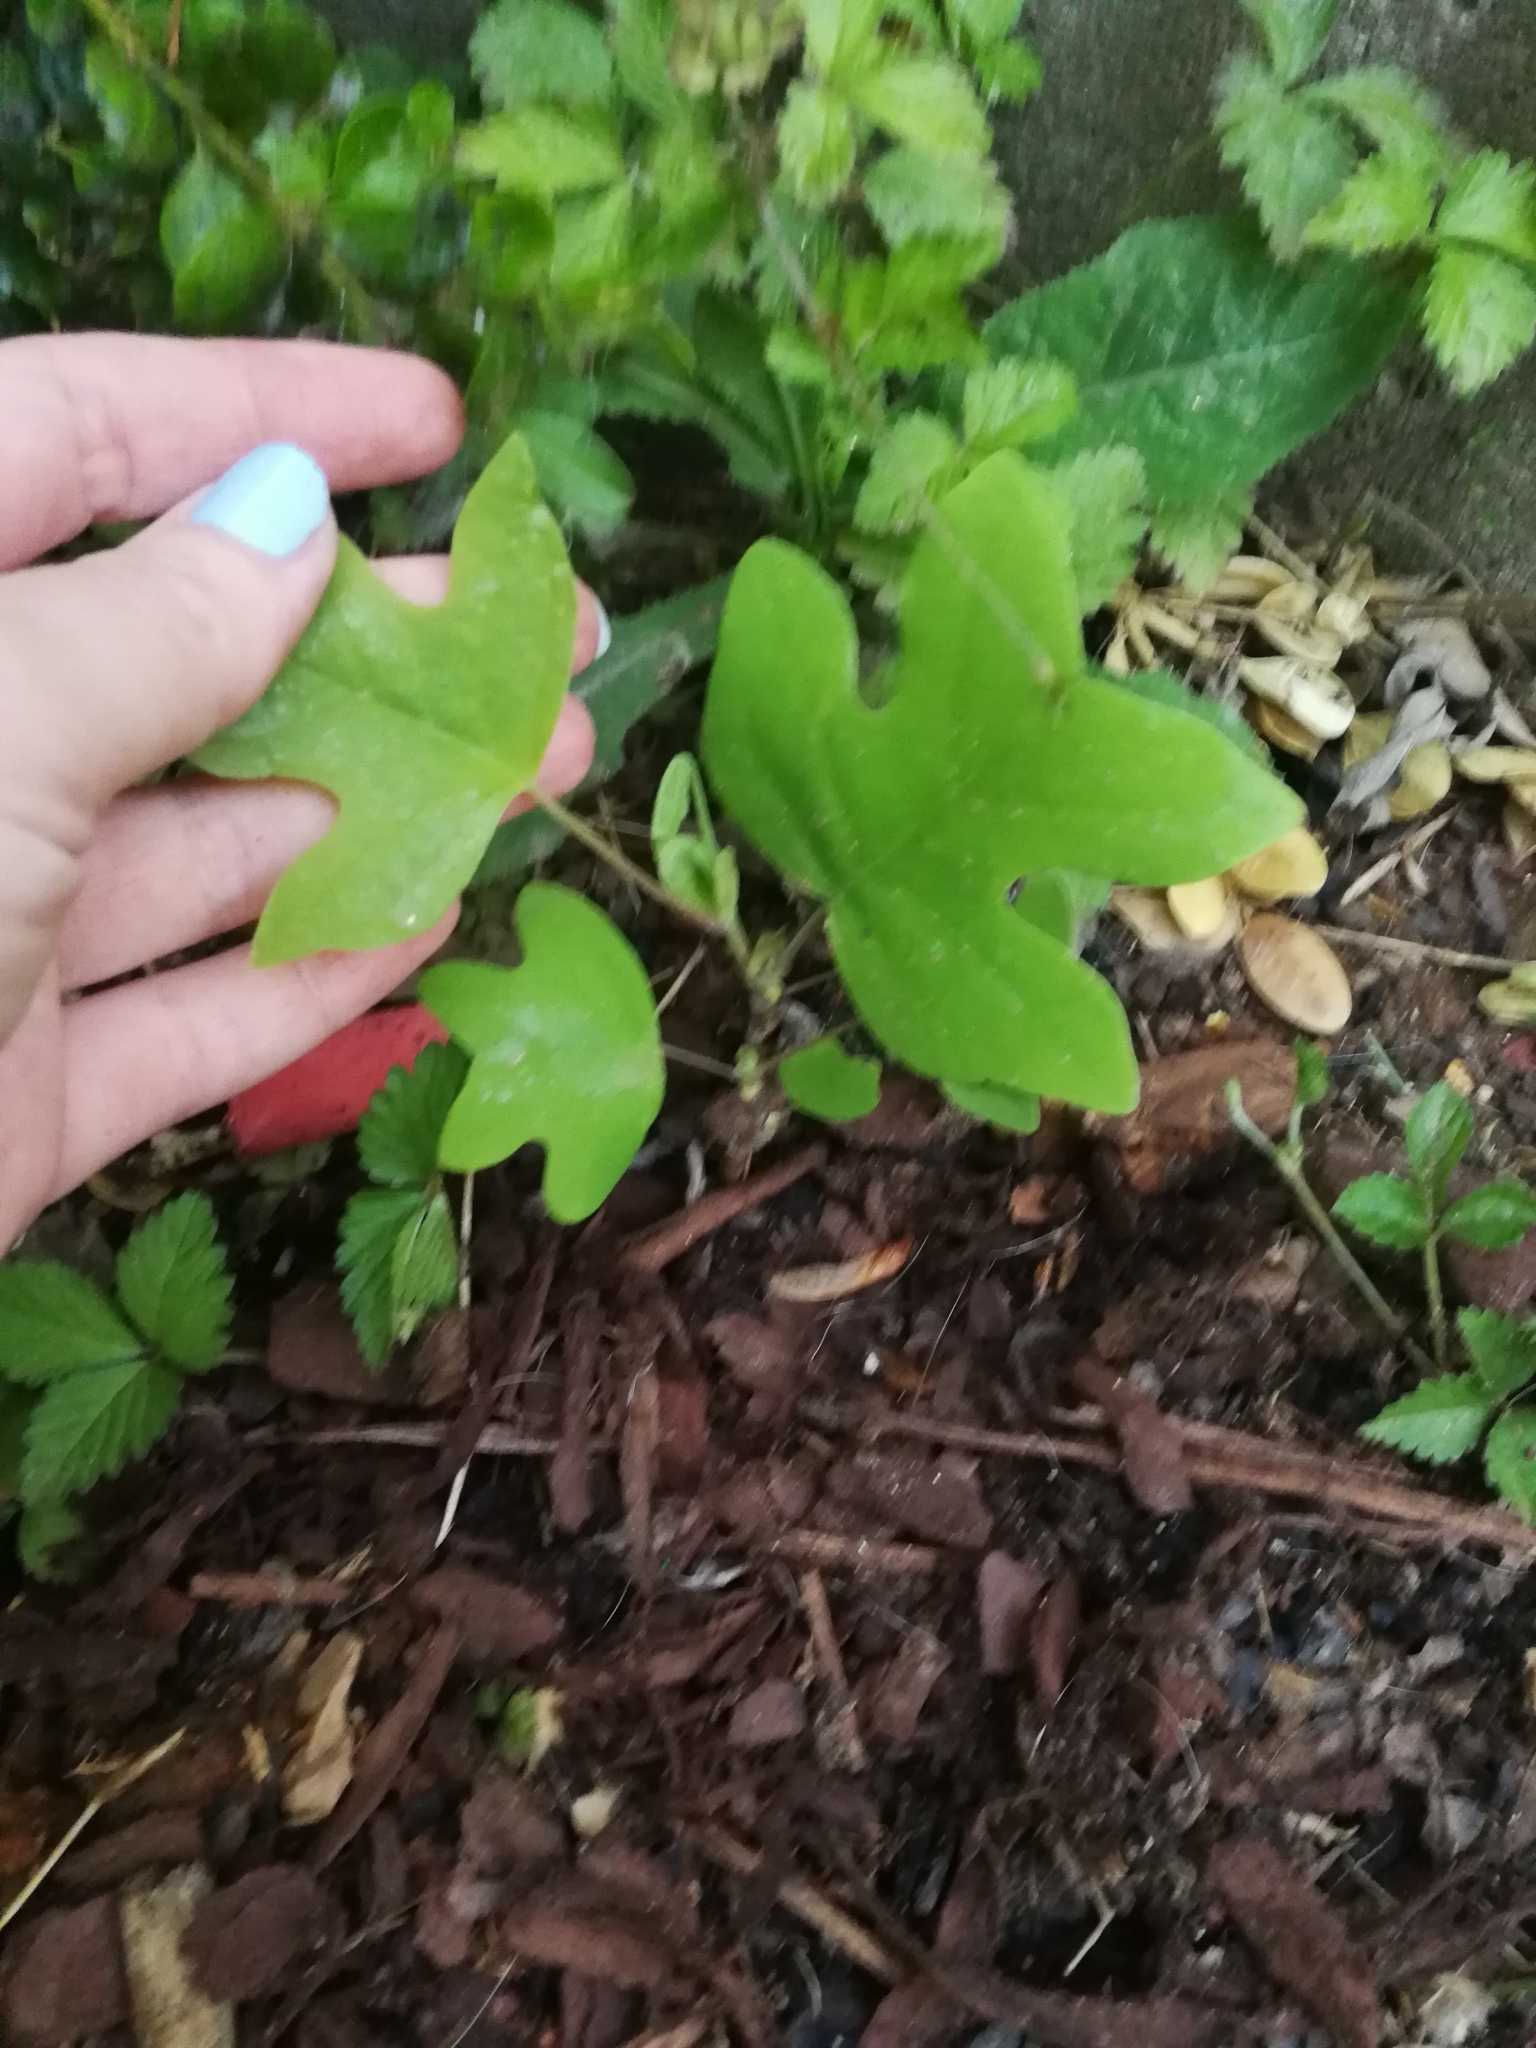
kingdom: Plantae
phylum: Tracheophyta
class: Magnoliopsida
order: Magnoliales
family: Magnoliaceae
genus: Liriodendron
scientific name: Liriodendron tulipifera
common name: Tulip tree
